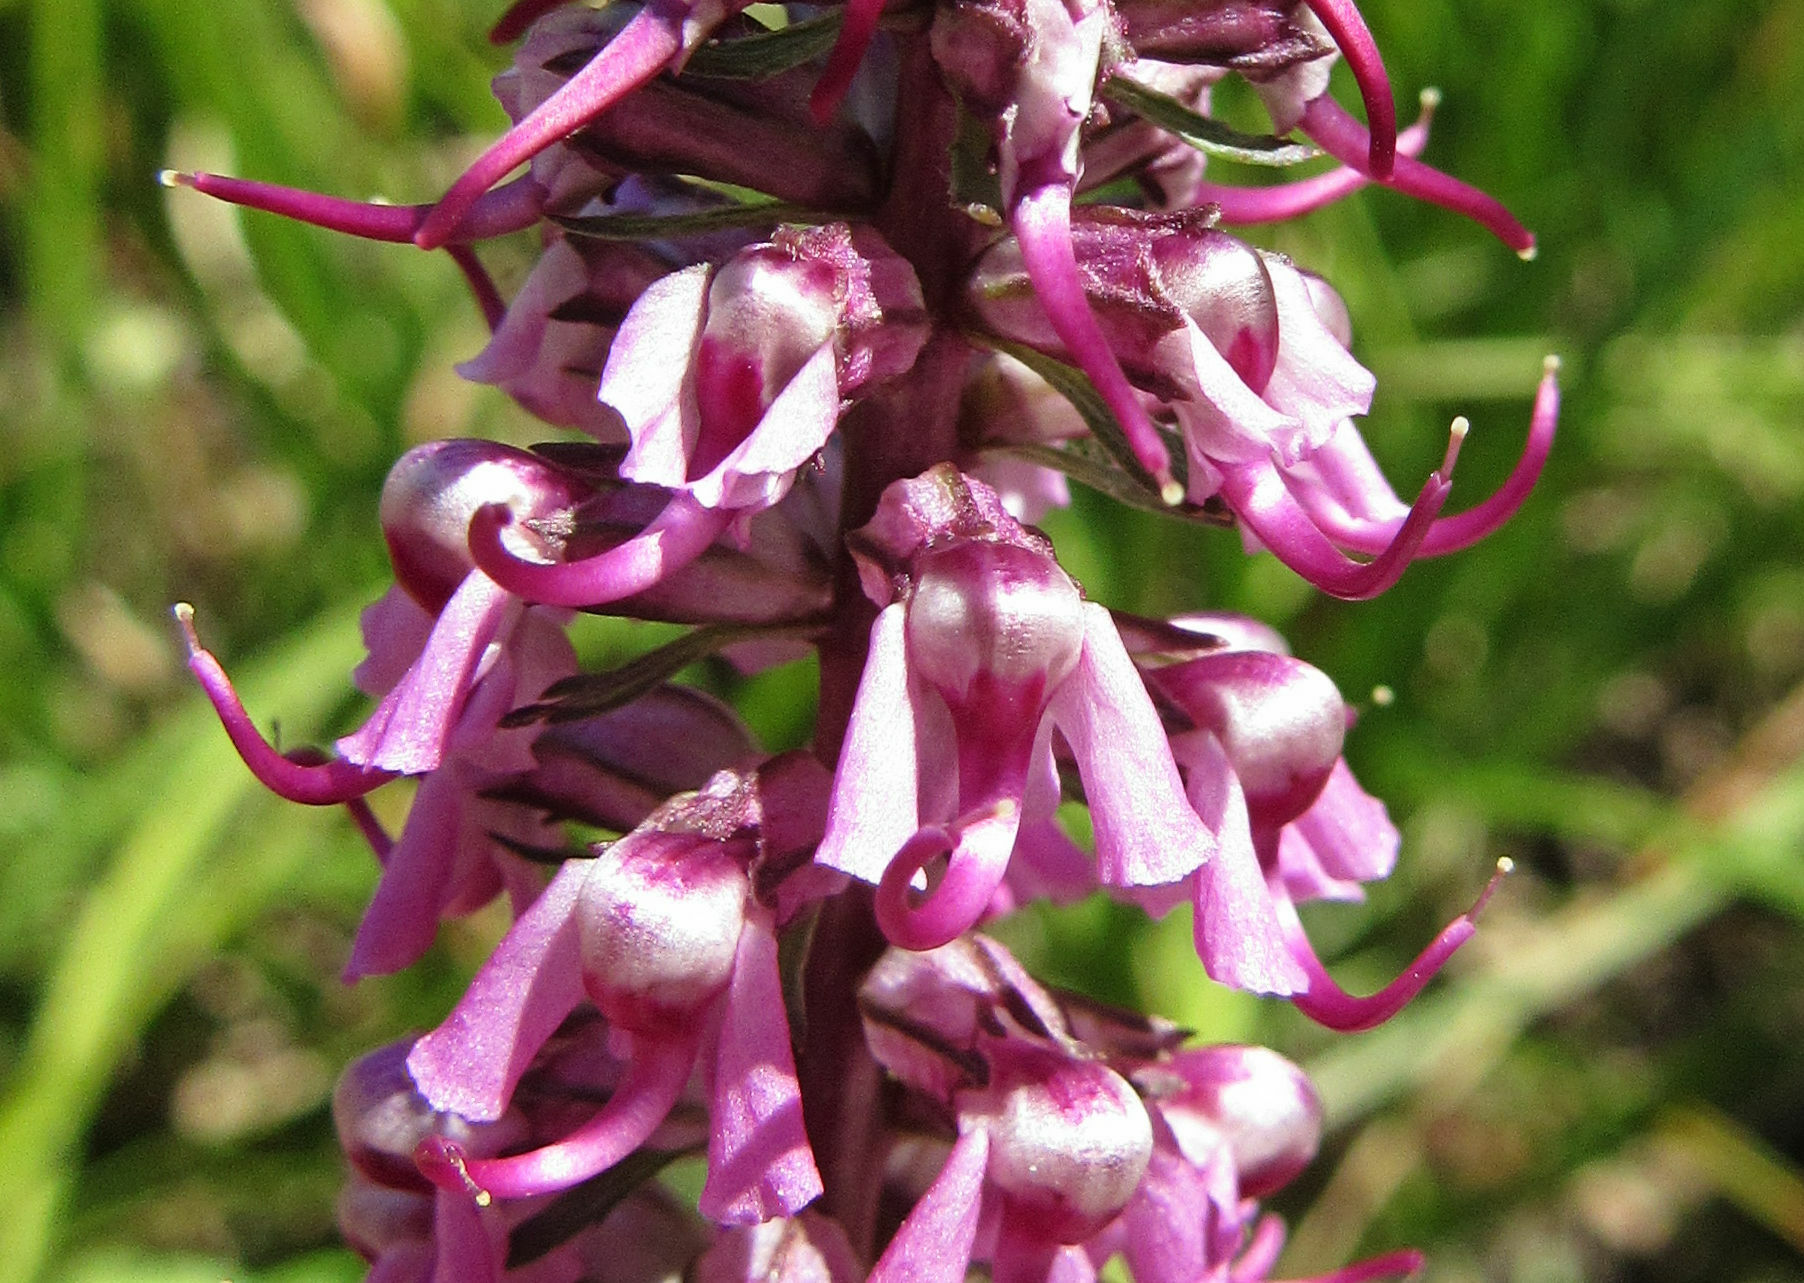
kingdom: Plantae
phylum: Tracheophyta
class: Magnoliopsida
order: Lamiales
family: Orobanchaceae
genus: Pedicularis
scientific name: Pedicularis groenlandica
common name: Elephant's-head
